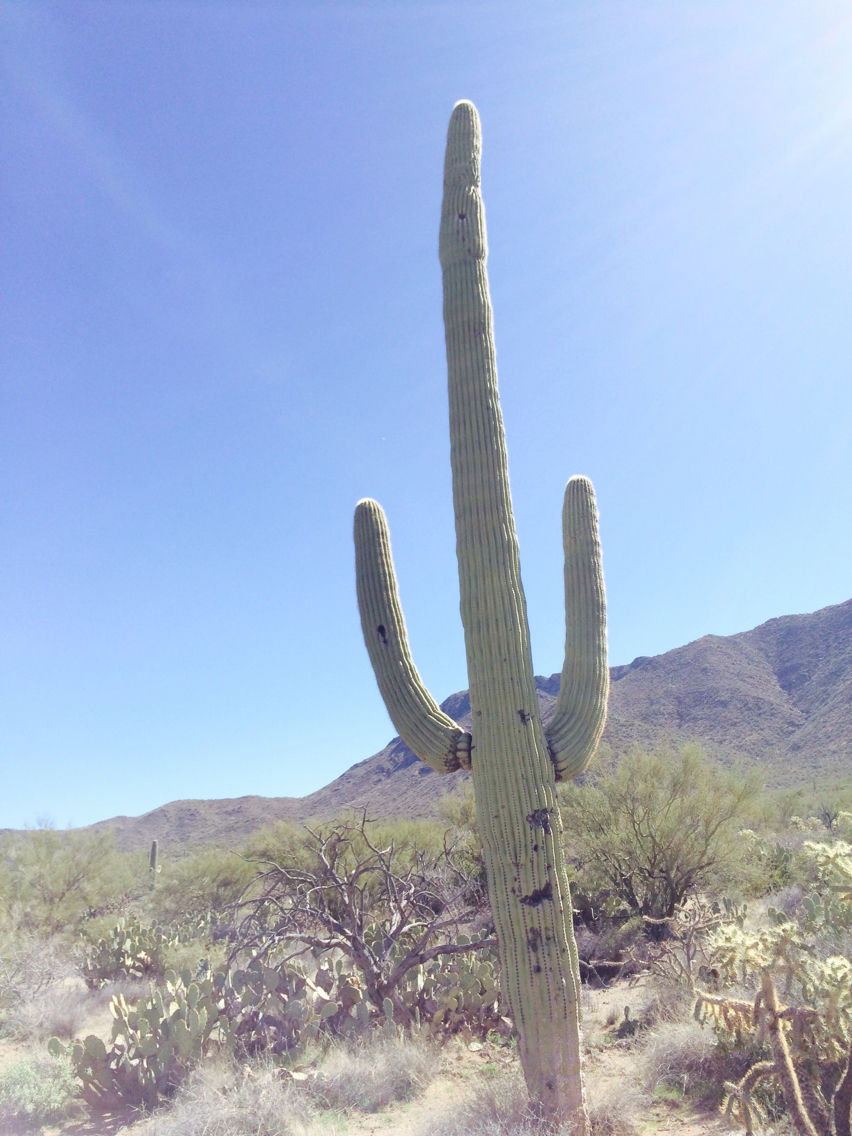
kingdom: Plantae
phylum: Tracheophyta
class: Magnoliopsida
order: Caryophyllales
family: Cactaceae
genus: Carnegiea
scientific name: Carnegiea gigantea
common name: Saguaro
